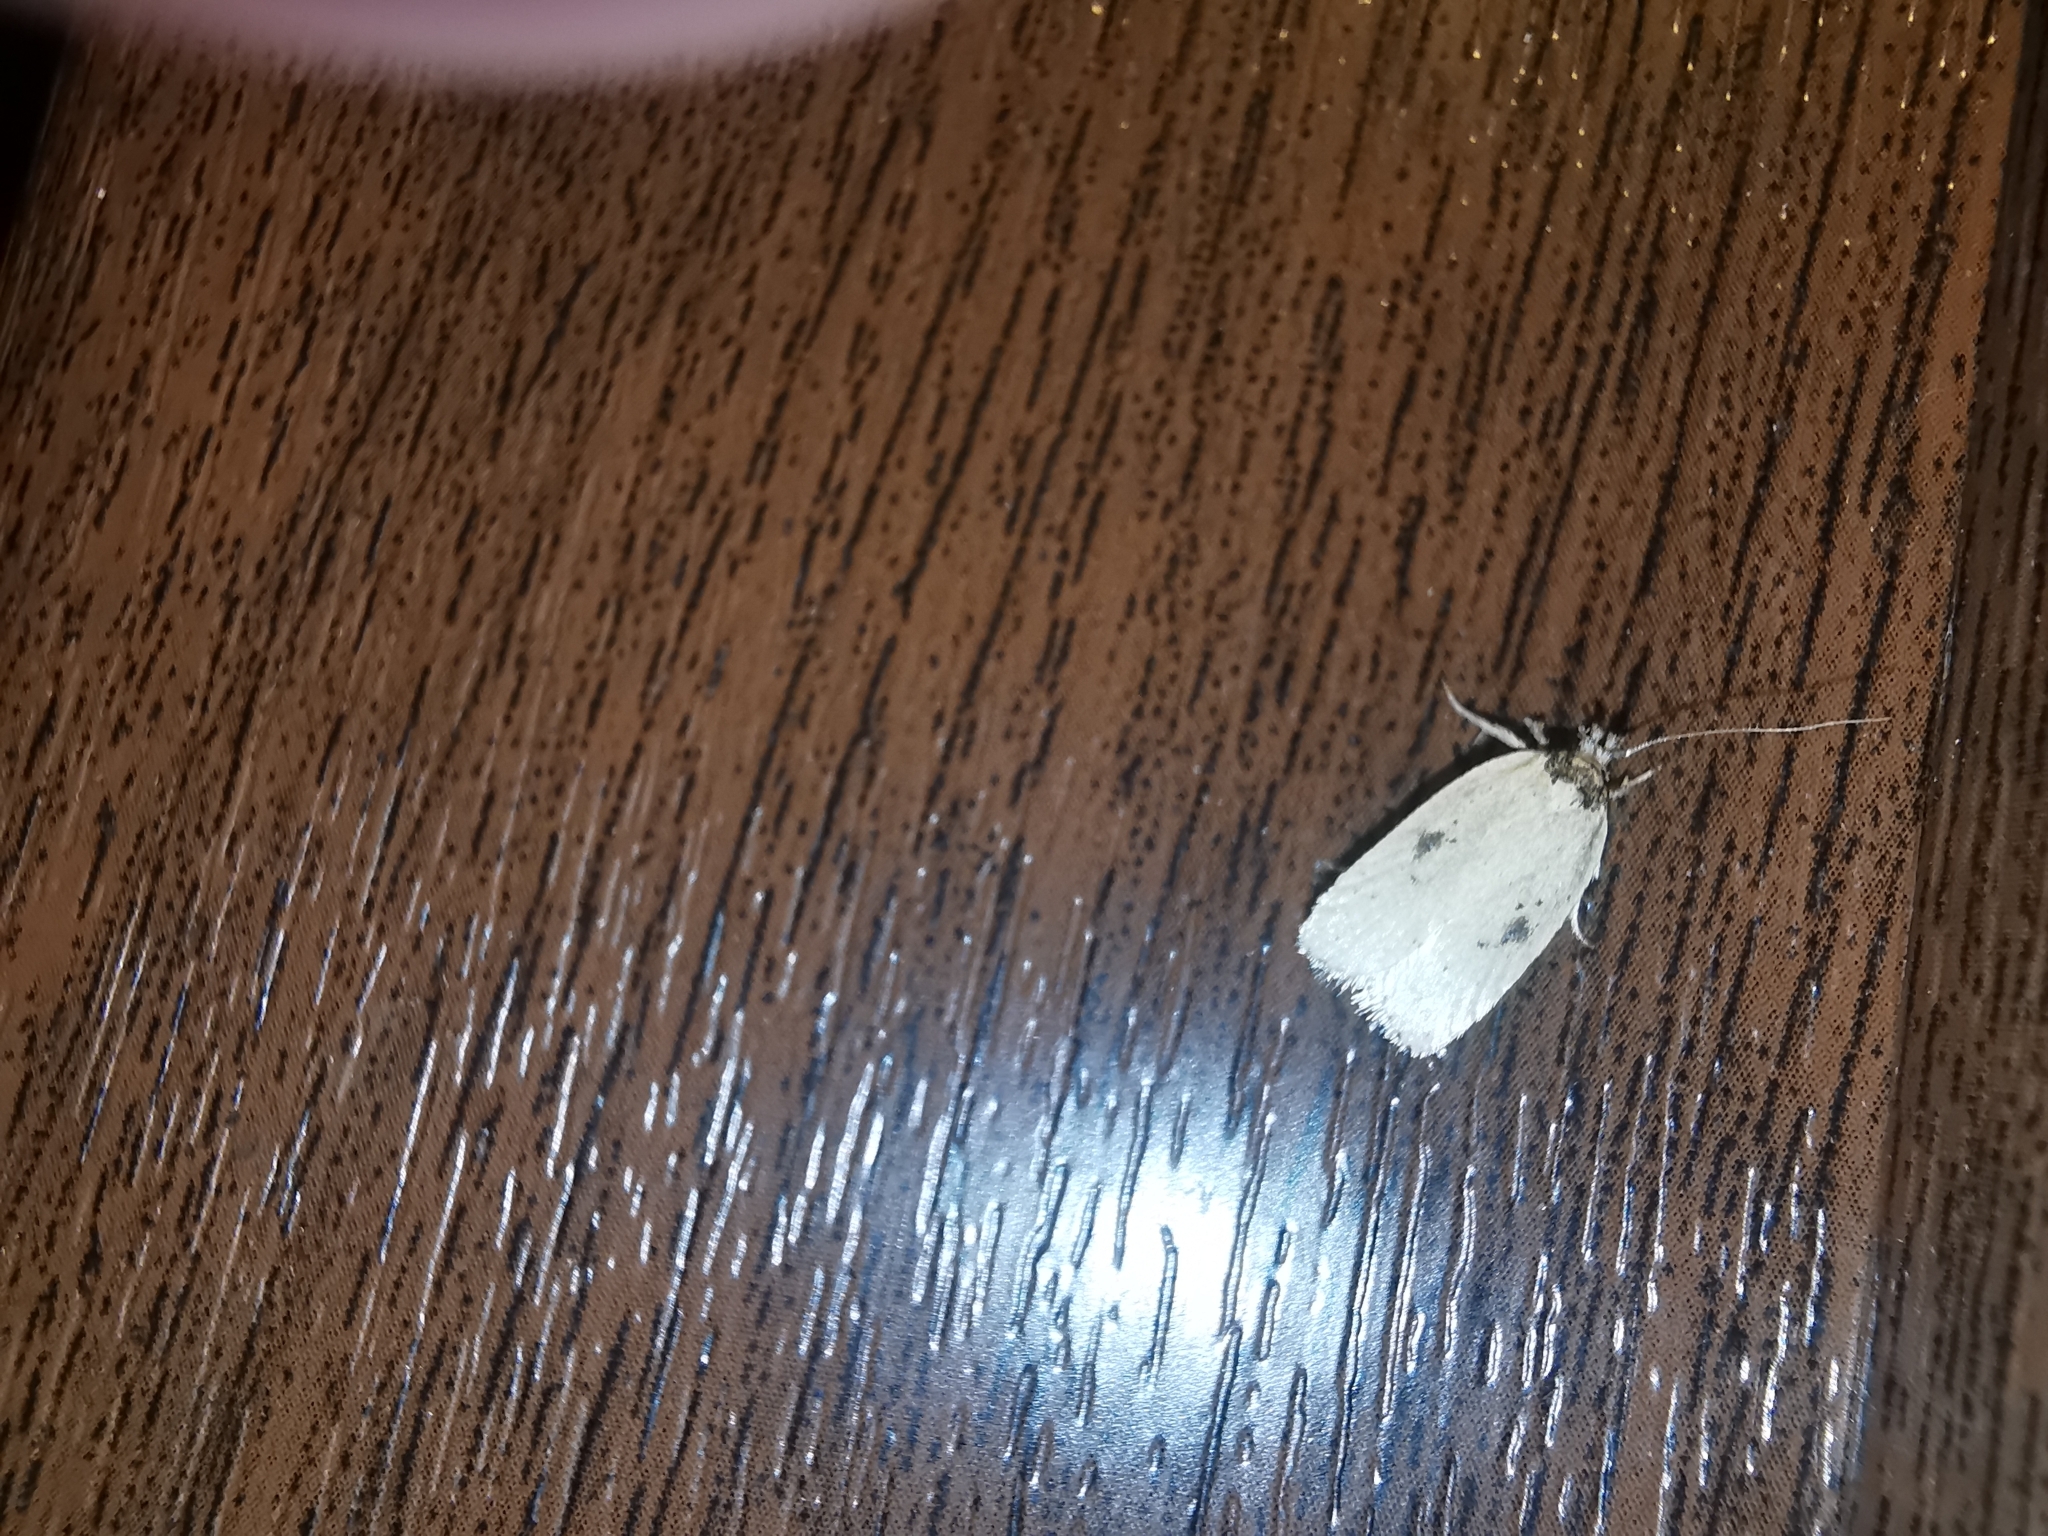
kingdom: Animalia
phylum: Arthropoda
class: Insecta
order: Lepidoptera
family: Depressariidae
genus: Agonopterix
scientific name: Agonopterix yeatiana
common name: Coastal flat-body
